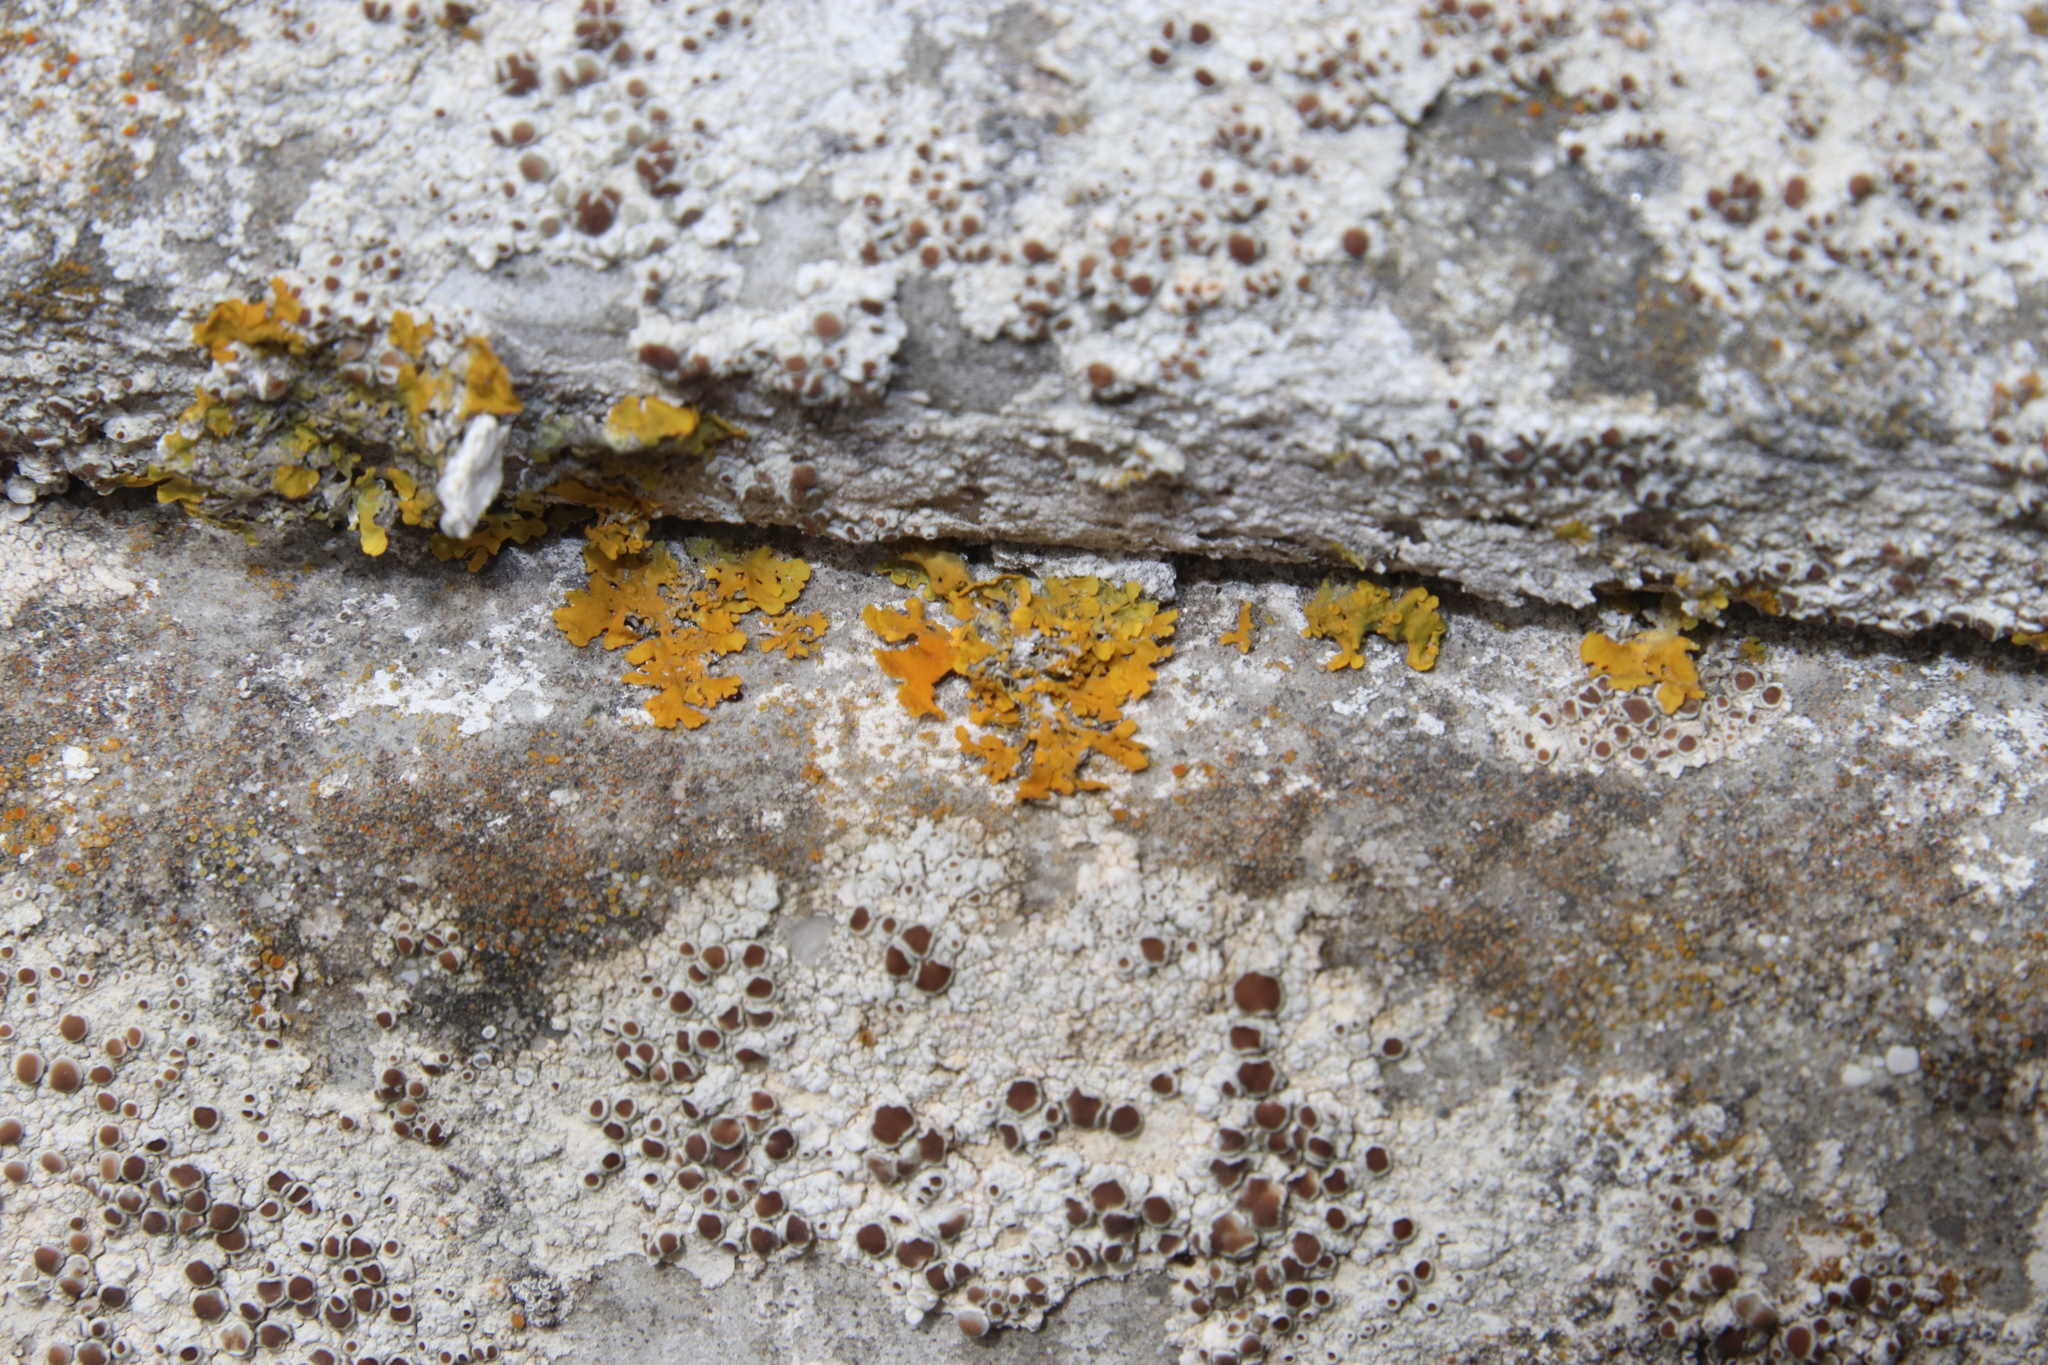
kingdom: Fungi
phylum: Ascomycota
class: Lecanoromycetes
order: Teloschistales
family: Teloschistaceae
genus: Xanthoria
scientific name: Xanthoria parietina
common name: Common orange lichen
